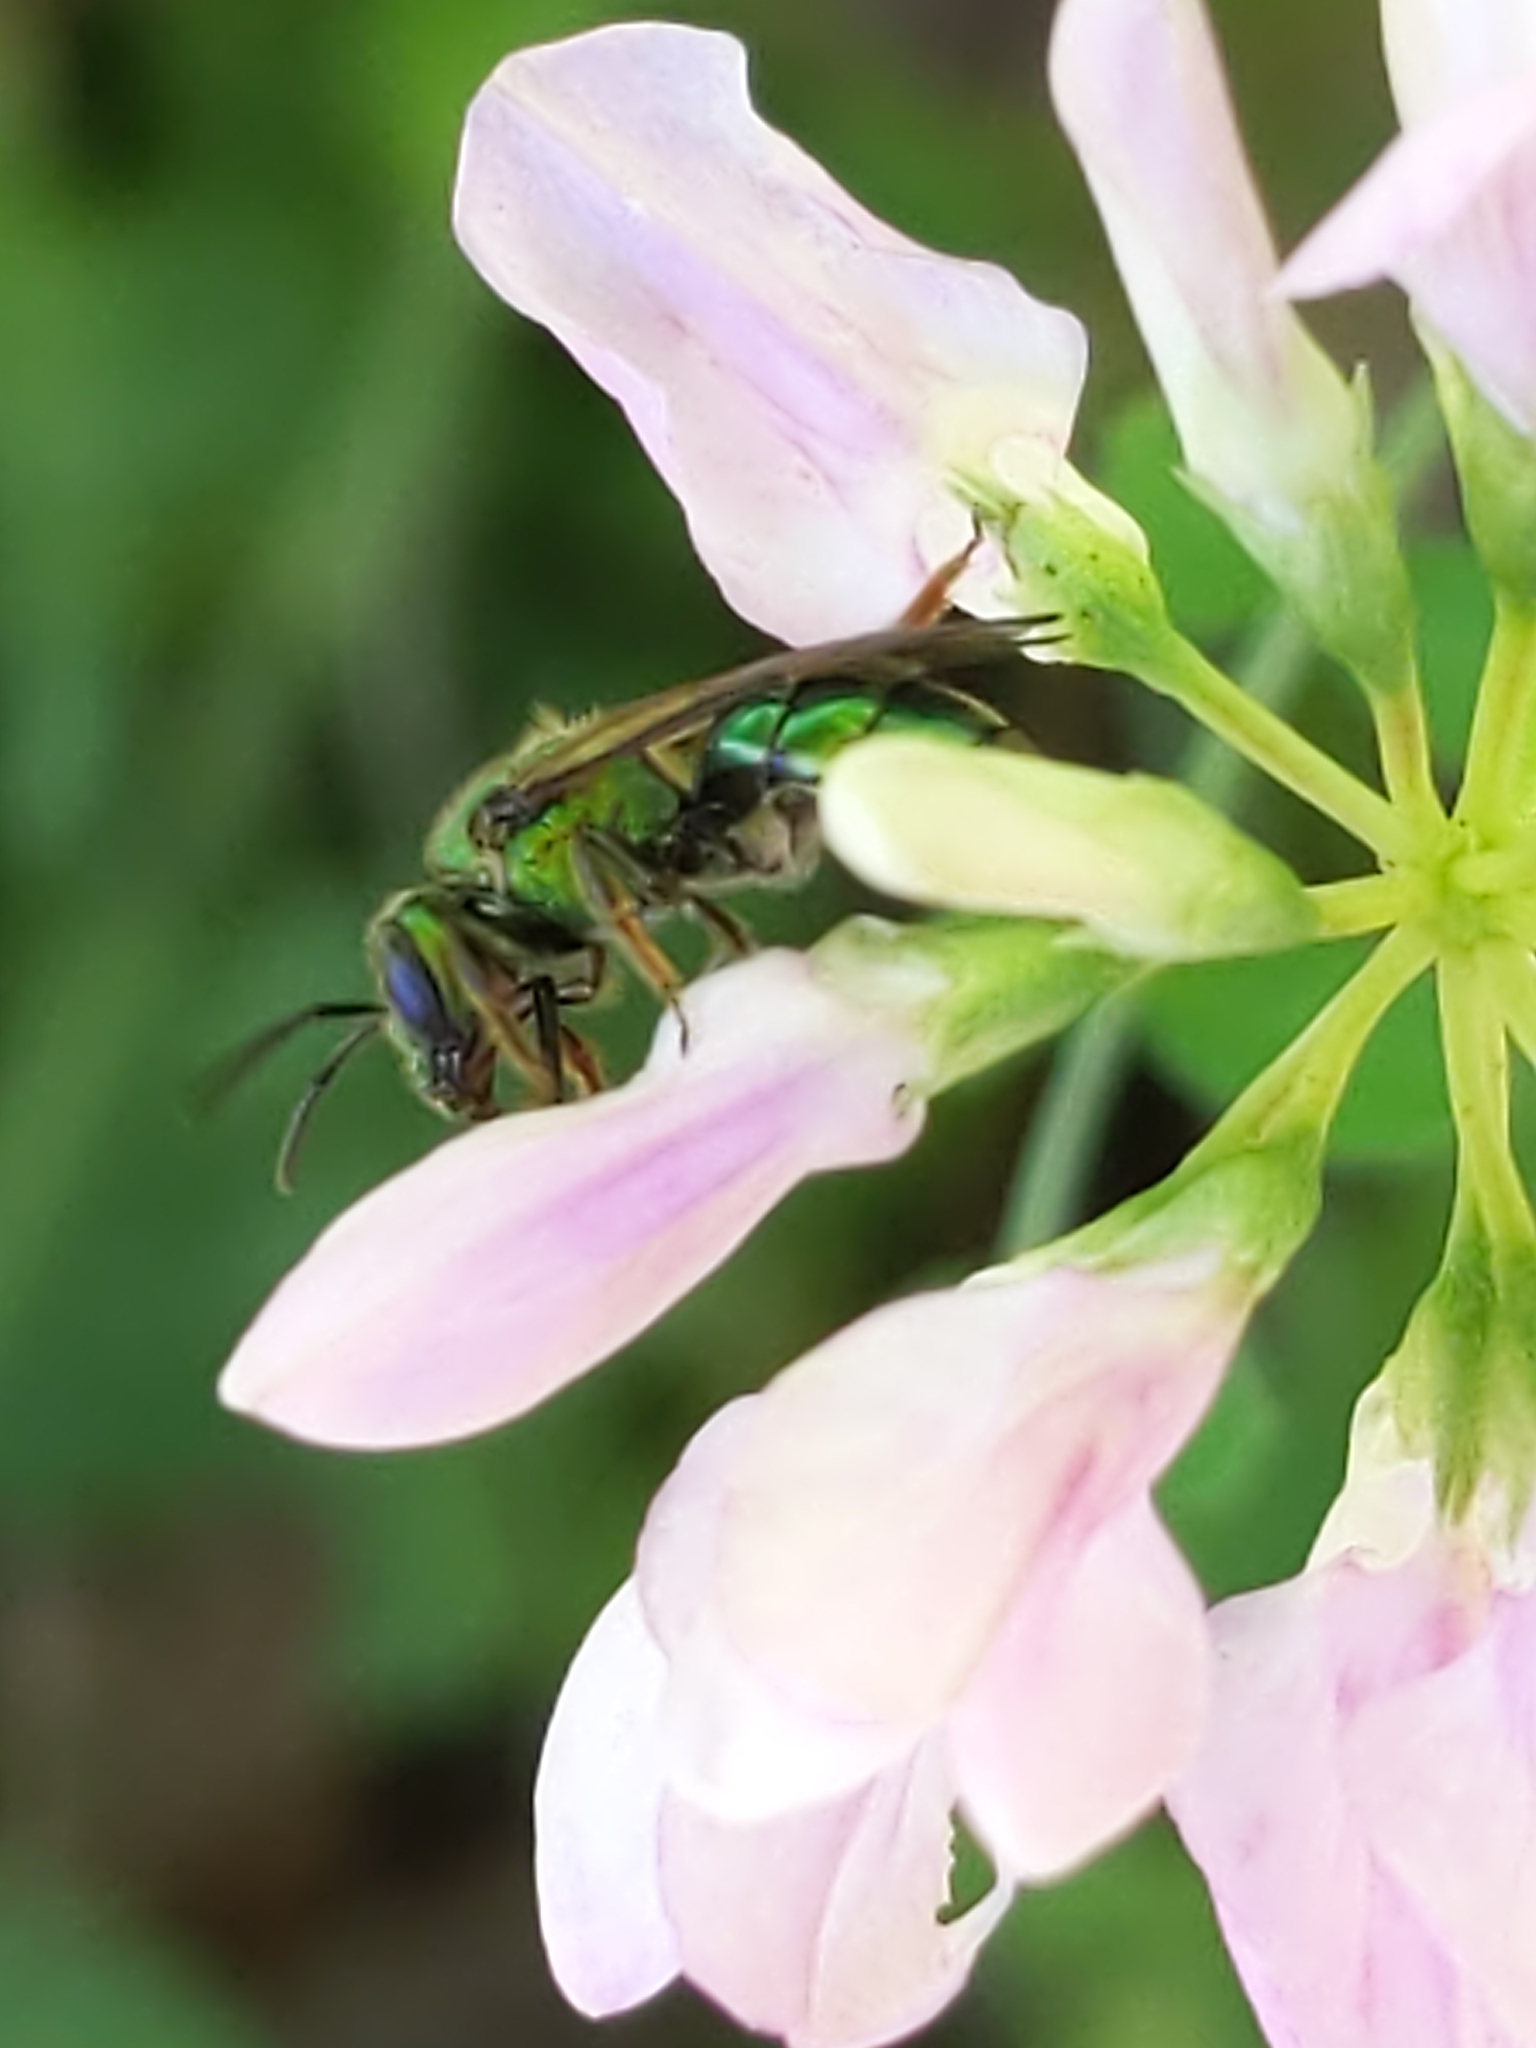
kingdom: Animalia
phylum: Arthropoda
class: Insecta
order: Hymenoptera
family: Halictidae
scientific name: Halictidae
